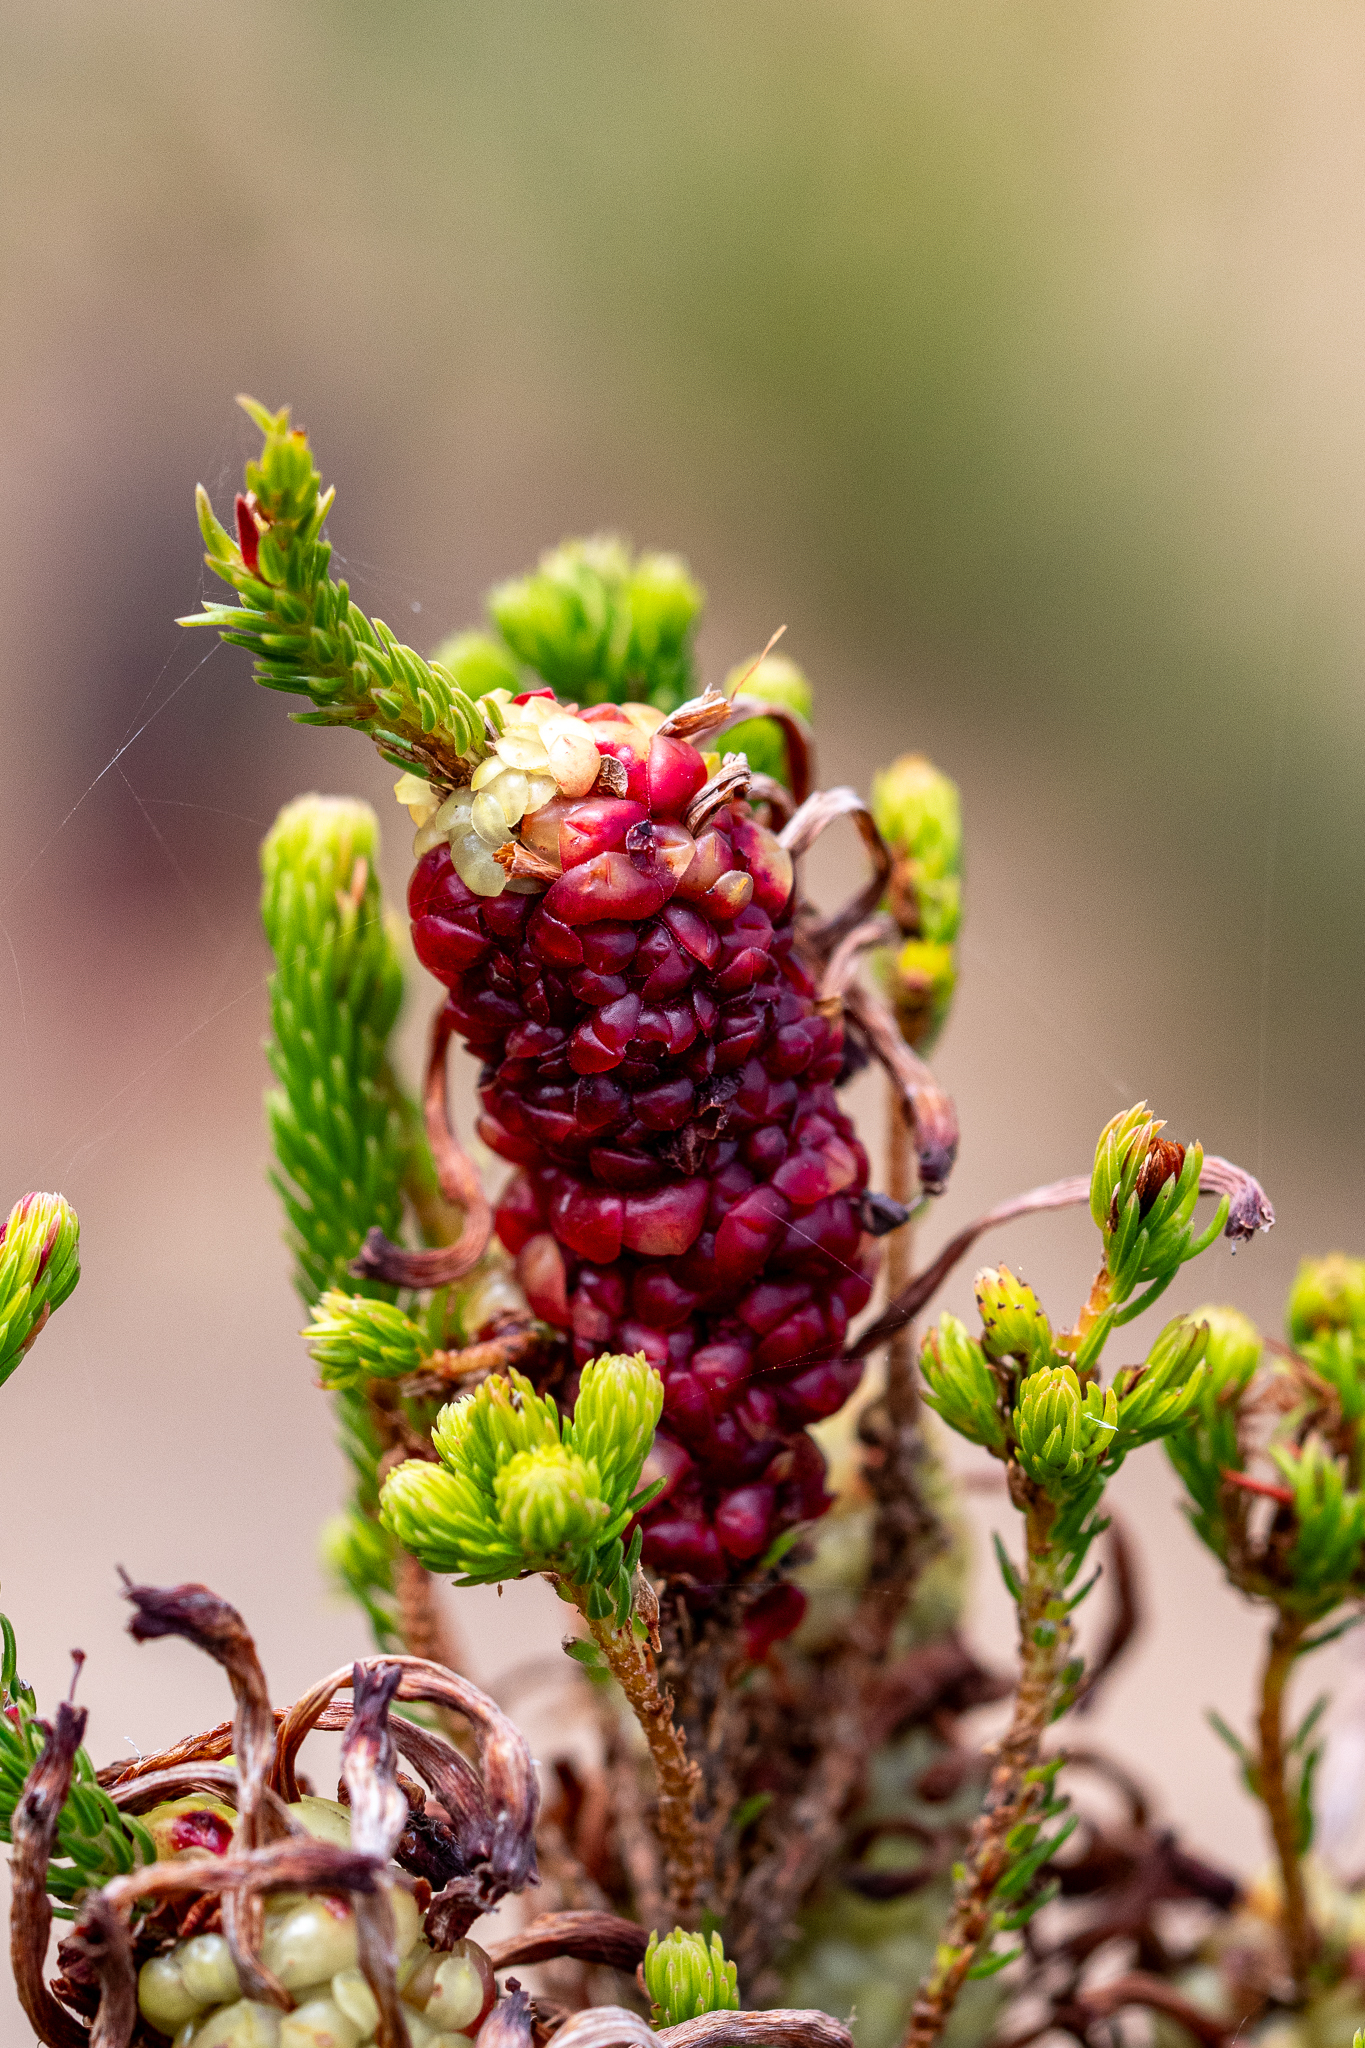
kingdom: Plantae
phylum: Tracheophyta
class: Magnoliopsida
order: Ericales
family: Ericaceae
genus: Erica
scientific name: Erica sessiliflora
